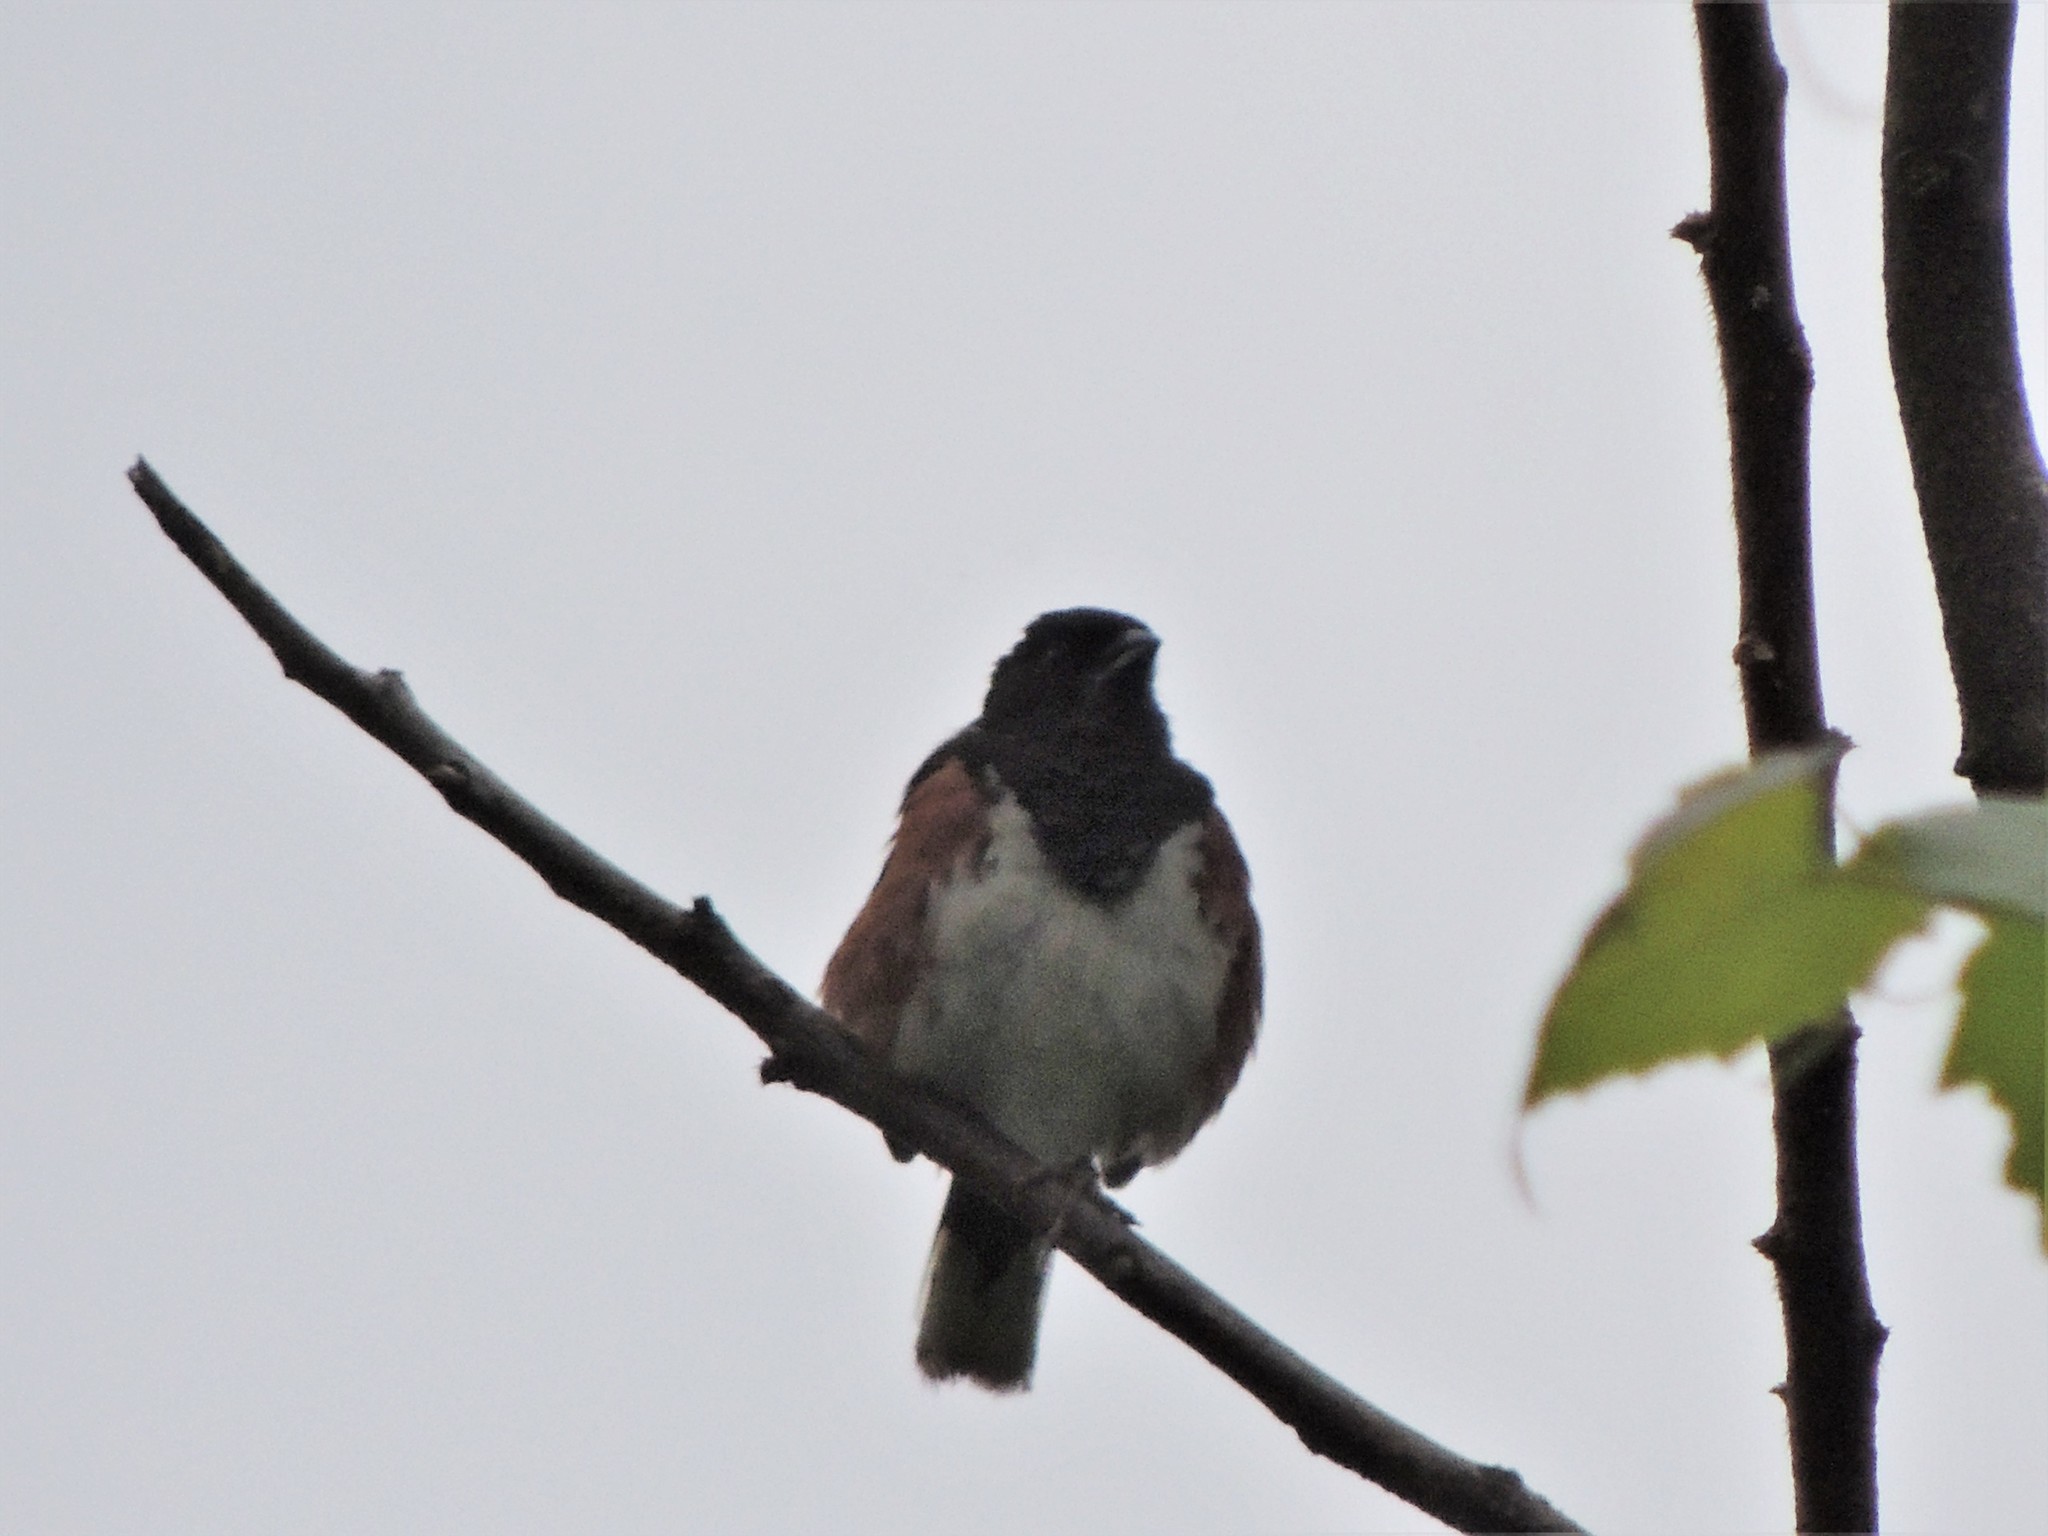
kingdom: Animalia
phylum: Chordata
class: Aves
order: Passeriformes
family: Passerellidae
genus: Pipilo
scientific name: Pipilo erythrophthalmus
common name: Eastern towhee
